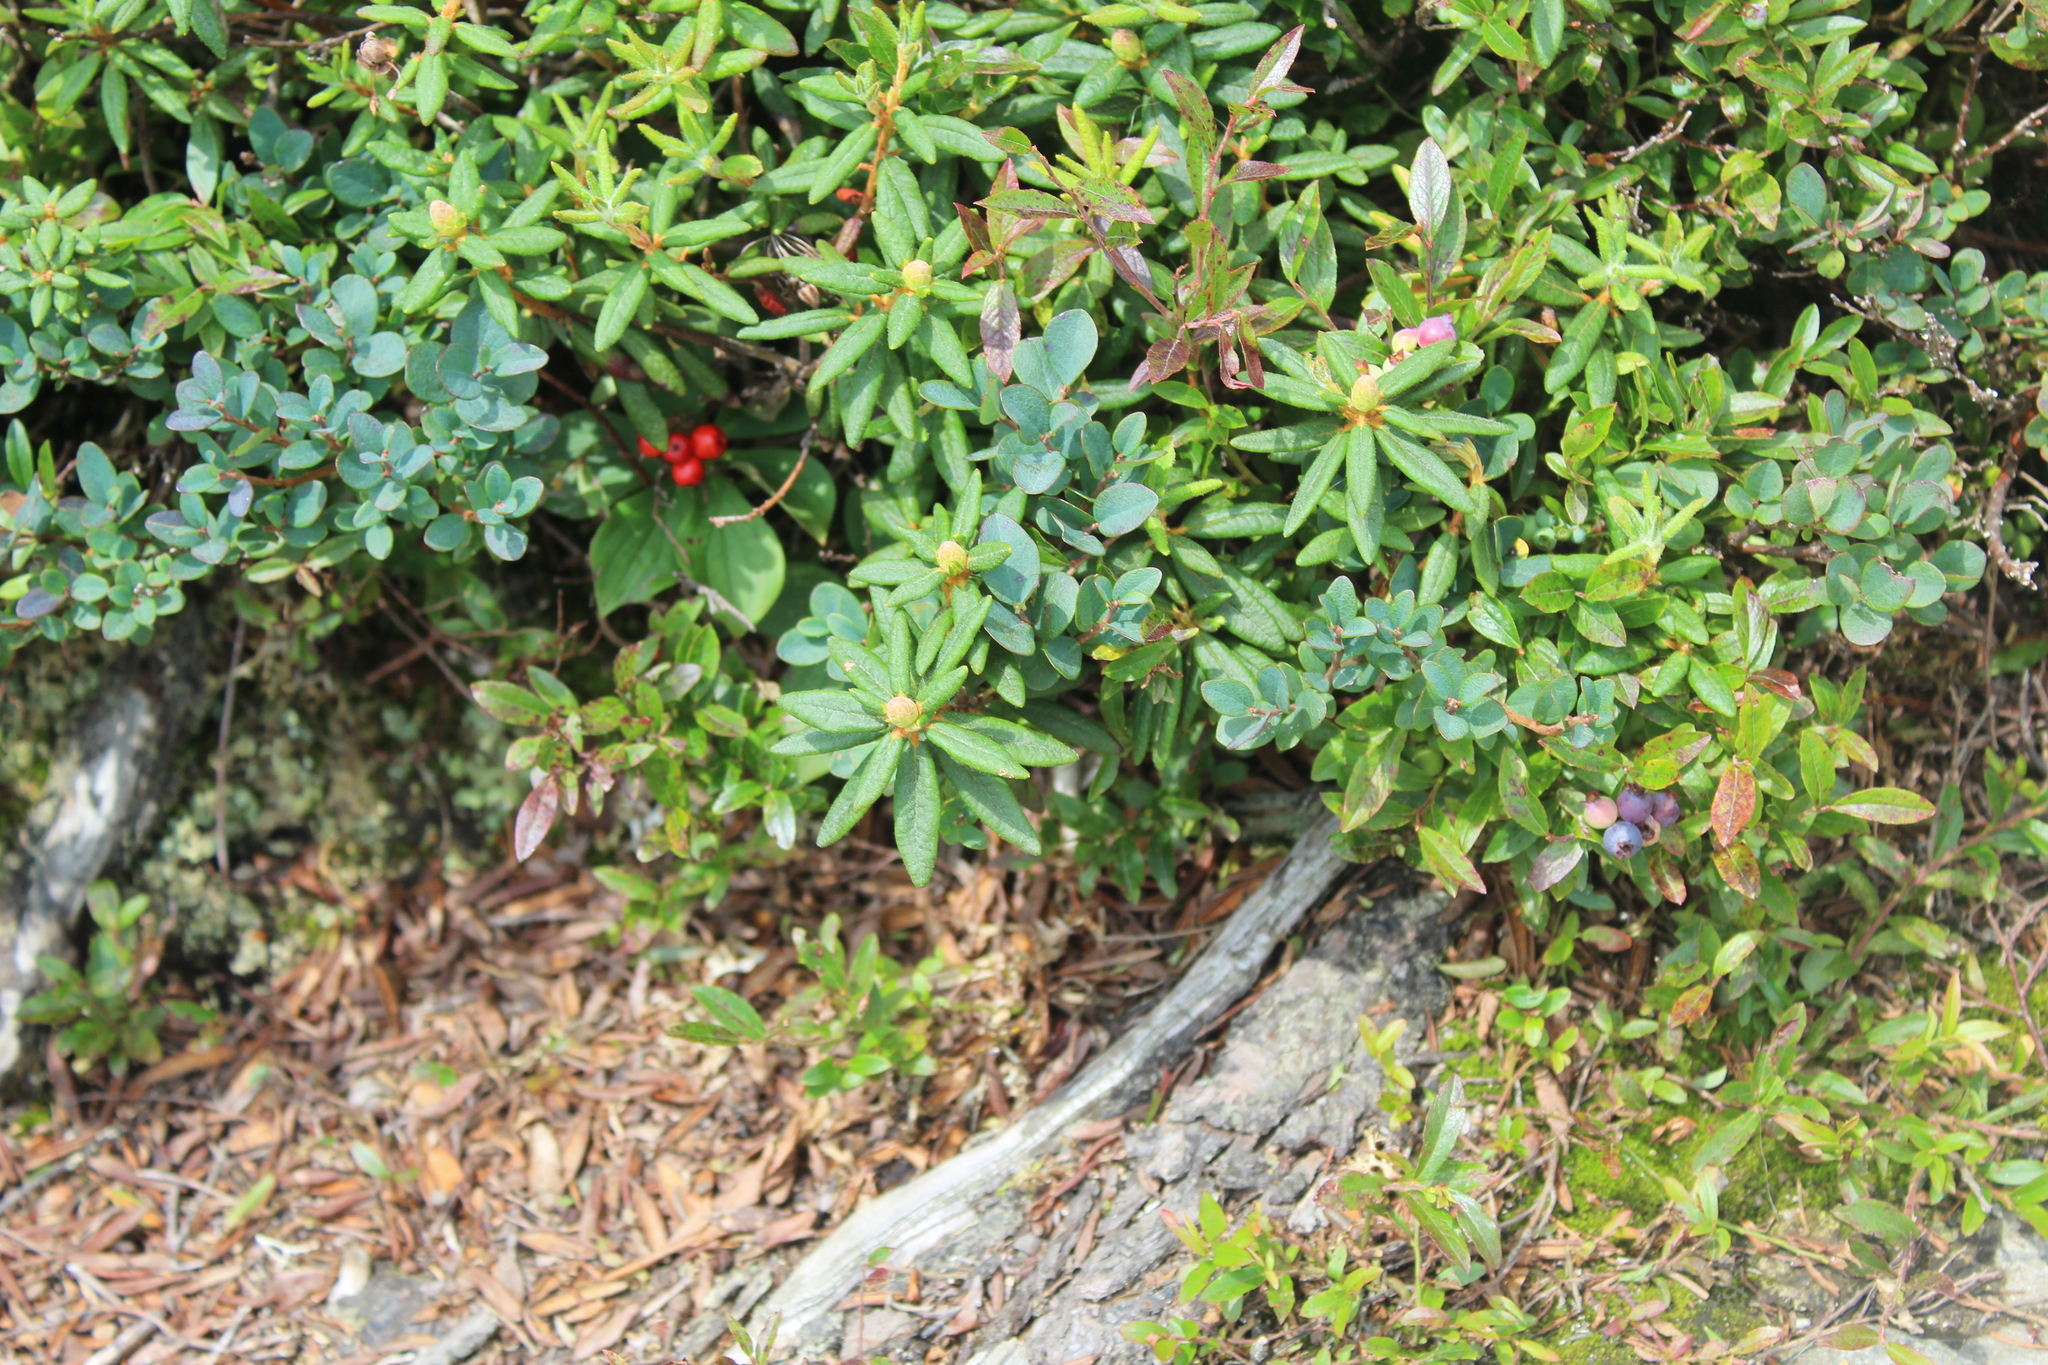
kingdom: Plantae
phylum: Tracheophyta
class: Magnoliopsida
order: Ericales
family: Ericaceae
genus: Rhododendron
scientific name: Rhododendron groenlandicum
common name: Bog labrador tea
